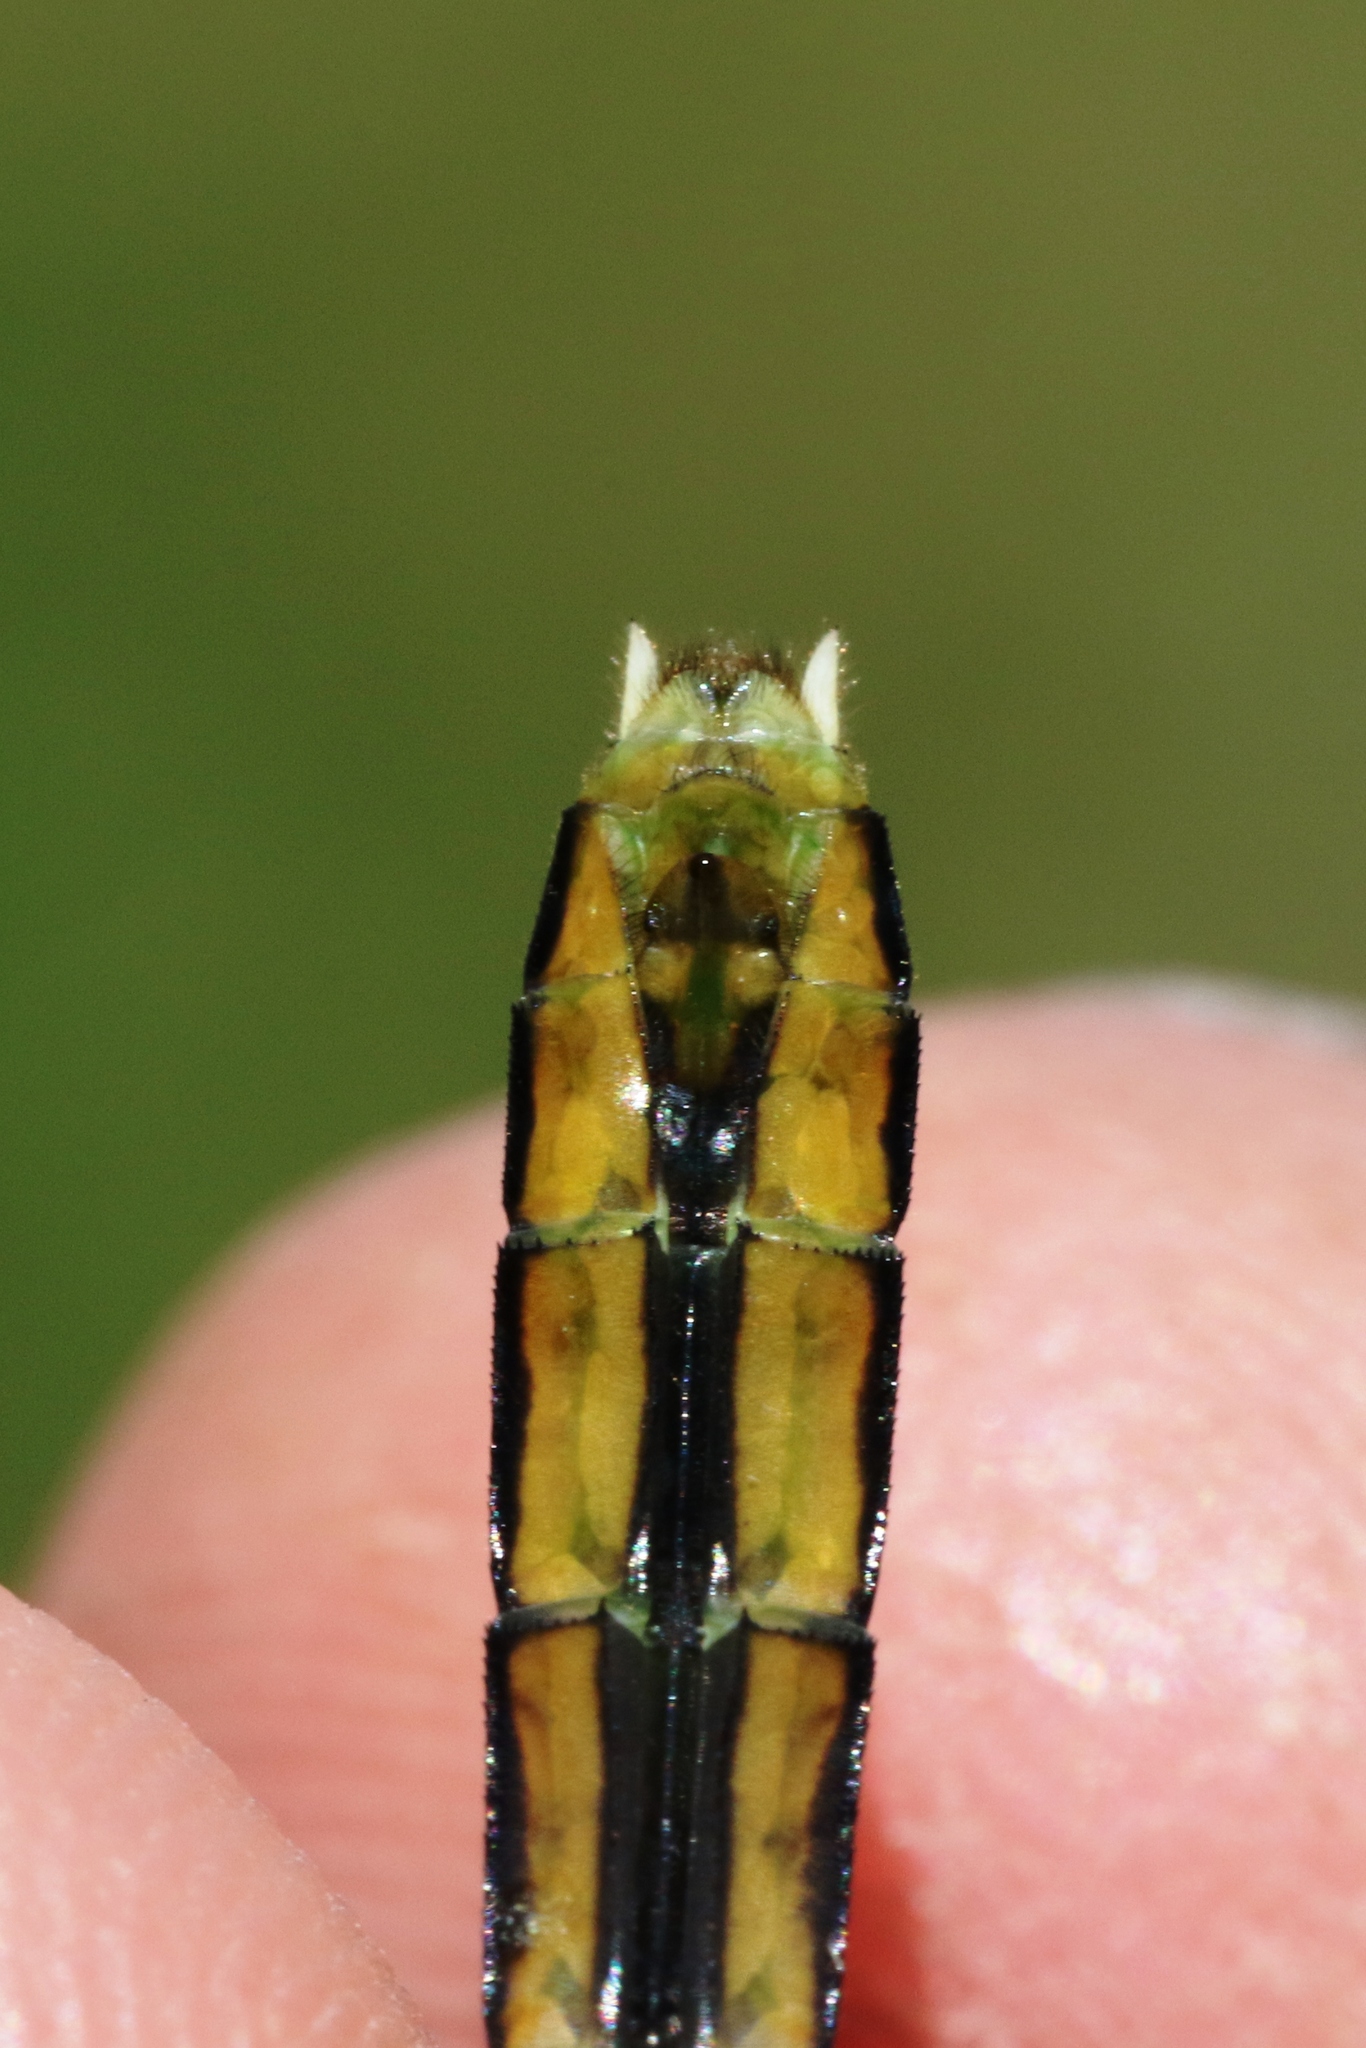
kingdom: Animalia
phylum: Arthropoda
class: Insecta
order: Odonata
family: Libellulidae
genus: Erythemis
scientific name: Erythemis simplicicollis
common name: Eastern pondhawk
